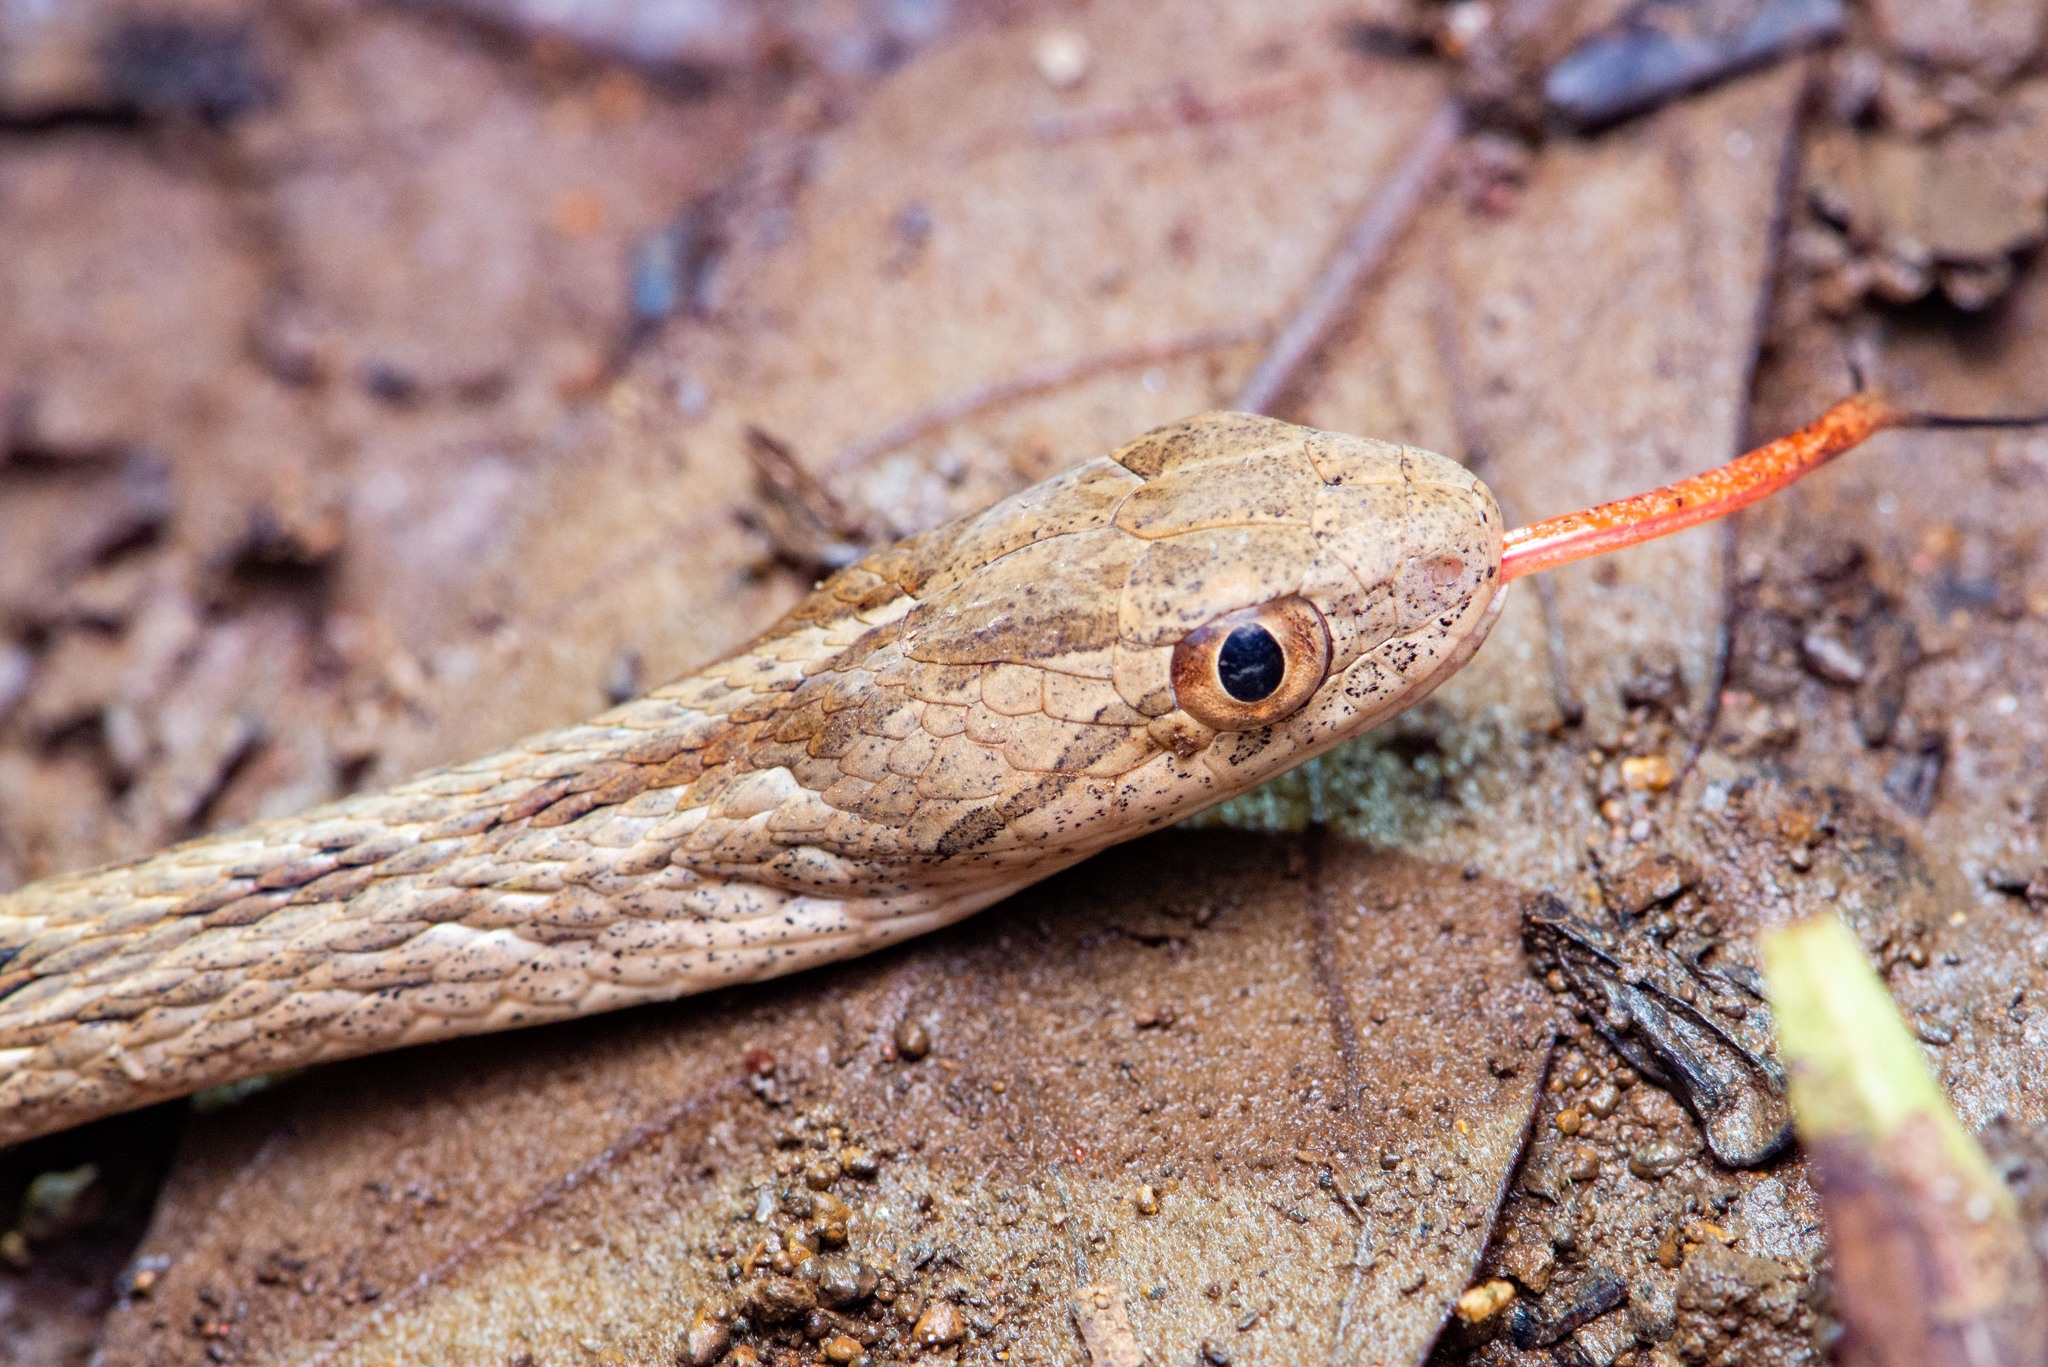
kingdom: Animalia
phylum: Chordata
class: Squamata
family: Colubridae
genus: Dryophylax
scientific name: Dryophylax
